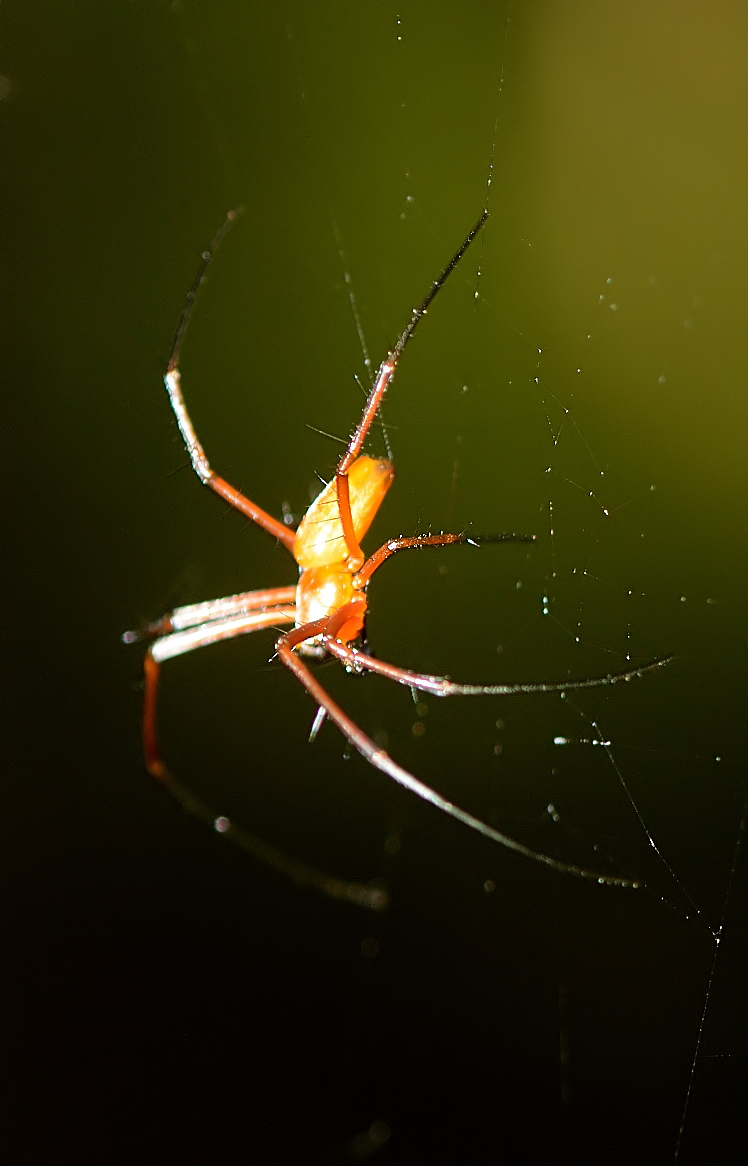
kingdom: Animalia
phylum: Arthropoda
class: Arachnida
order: Araneae
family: Araneidae
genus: Nephila
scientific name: Nephila pilipes
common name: Giant golden orb weaver
